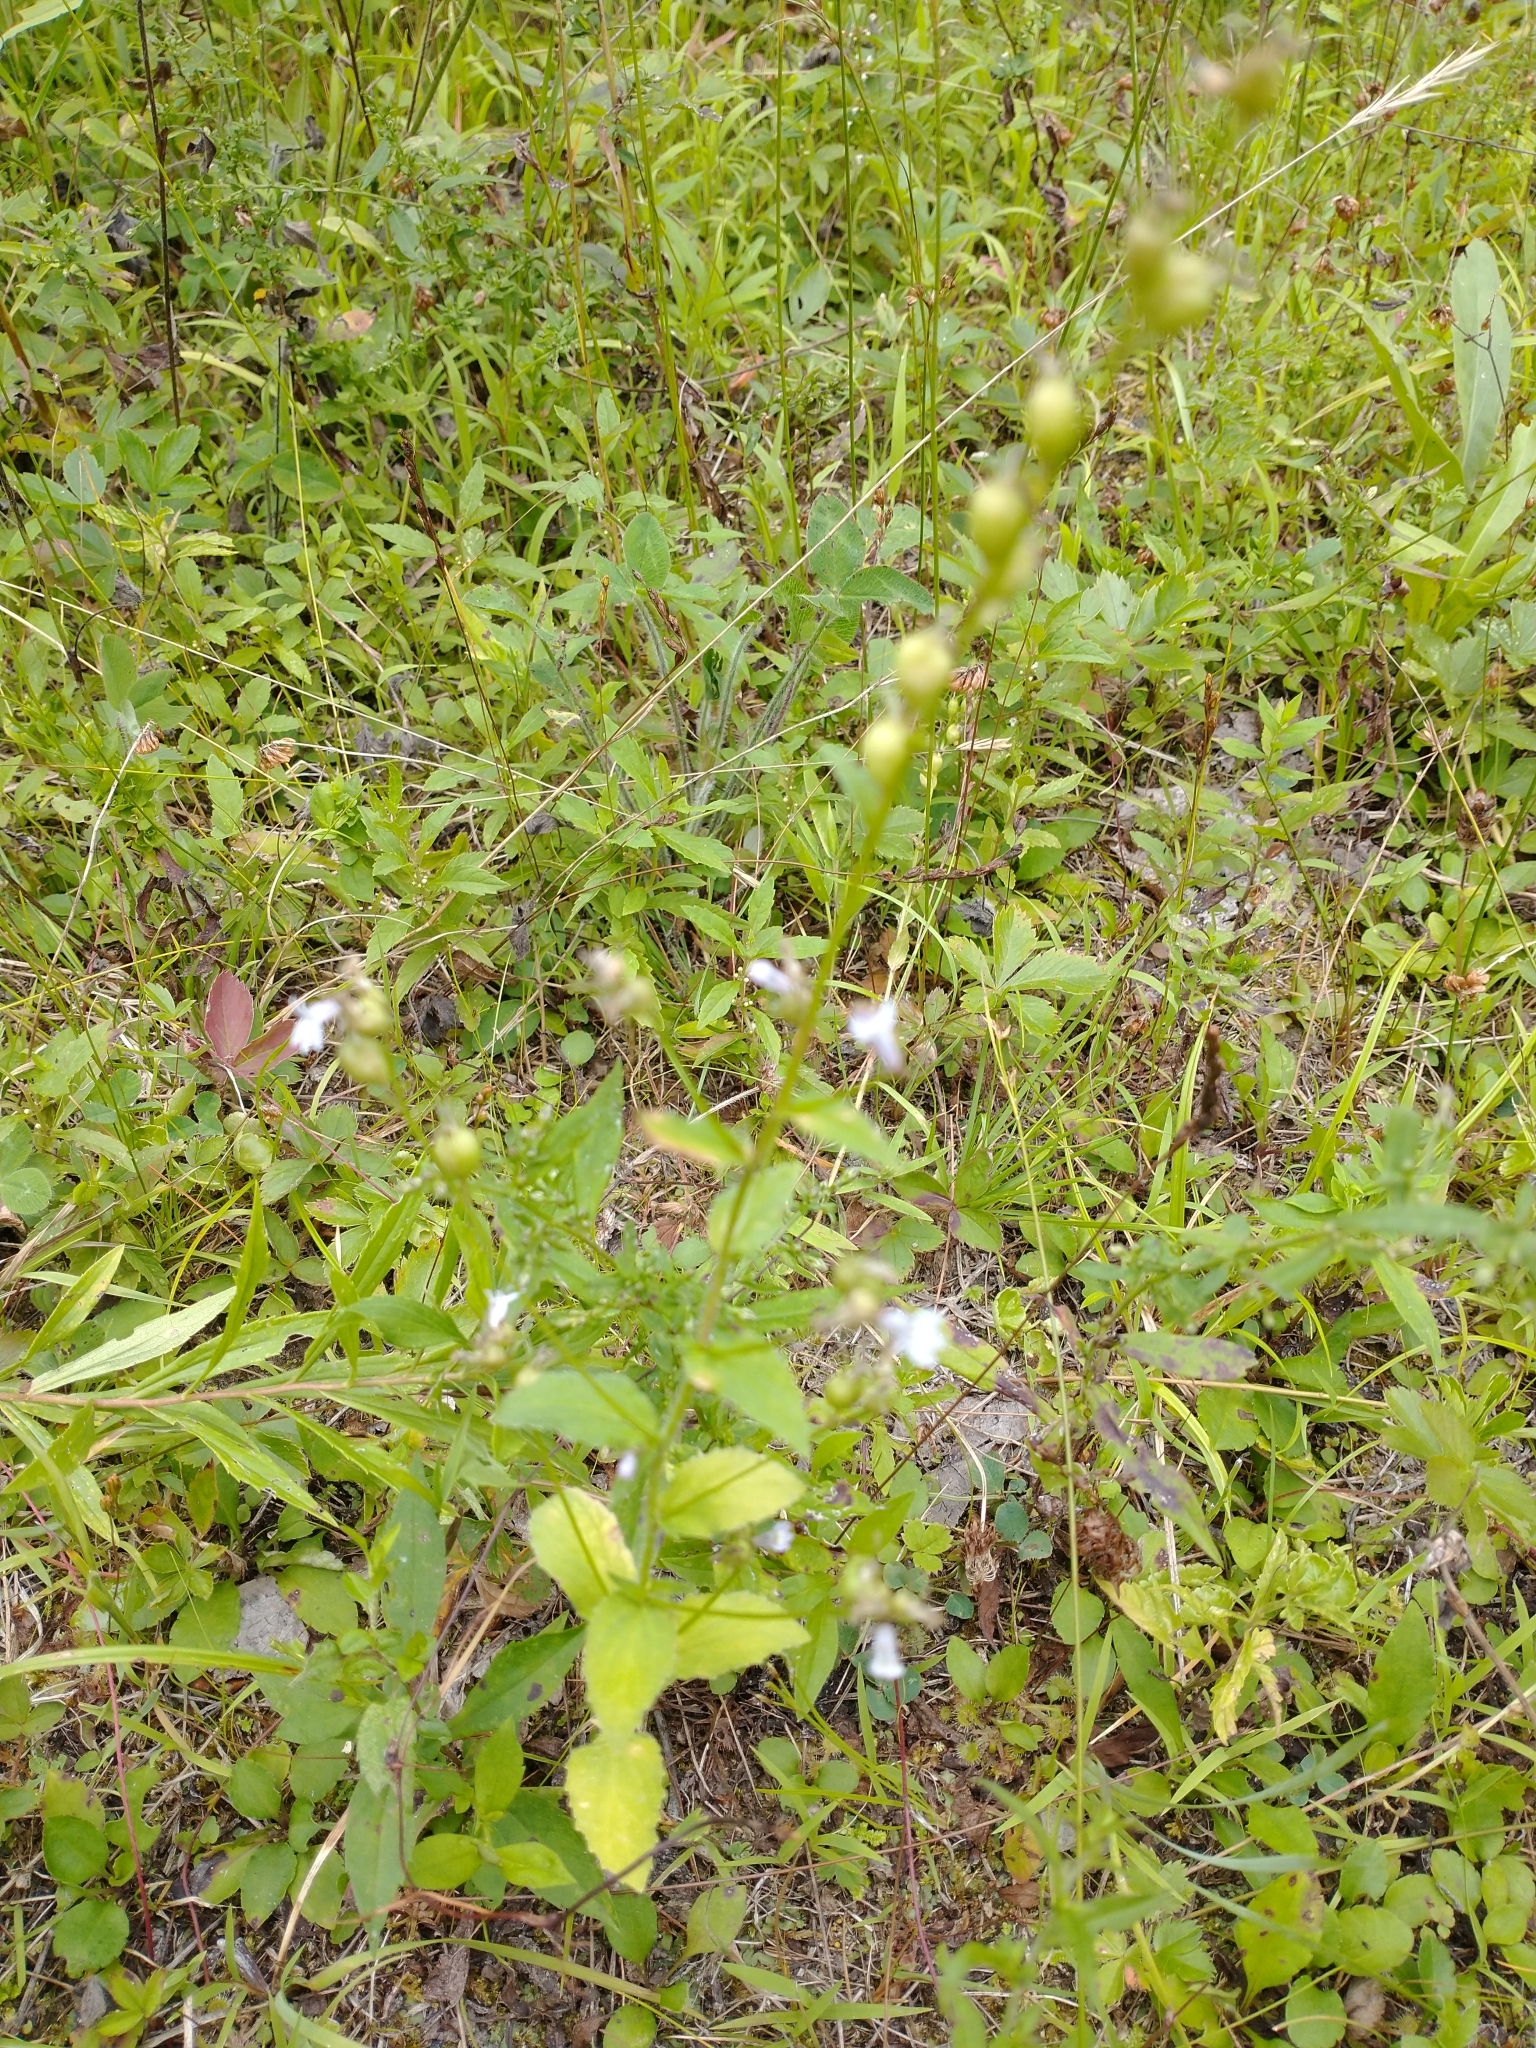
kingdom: Plantae
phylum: Tracheophyta
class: Magnoliopsida
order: Asterales
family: Campanulaceae
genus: Lobelia
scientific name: Lobelia inflata
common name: Indian tobacco
